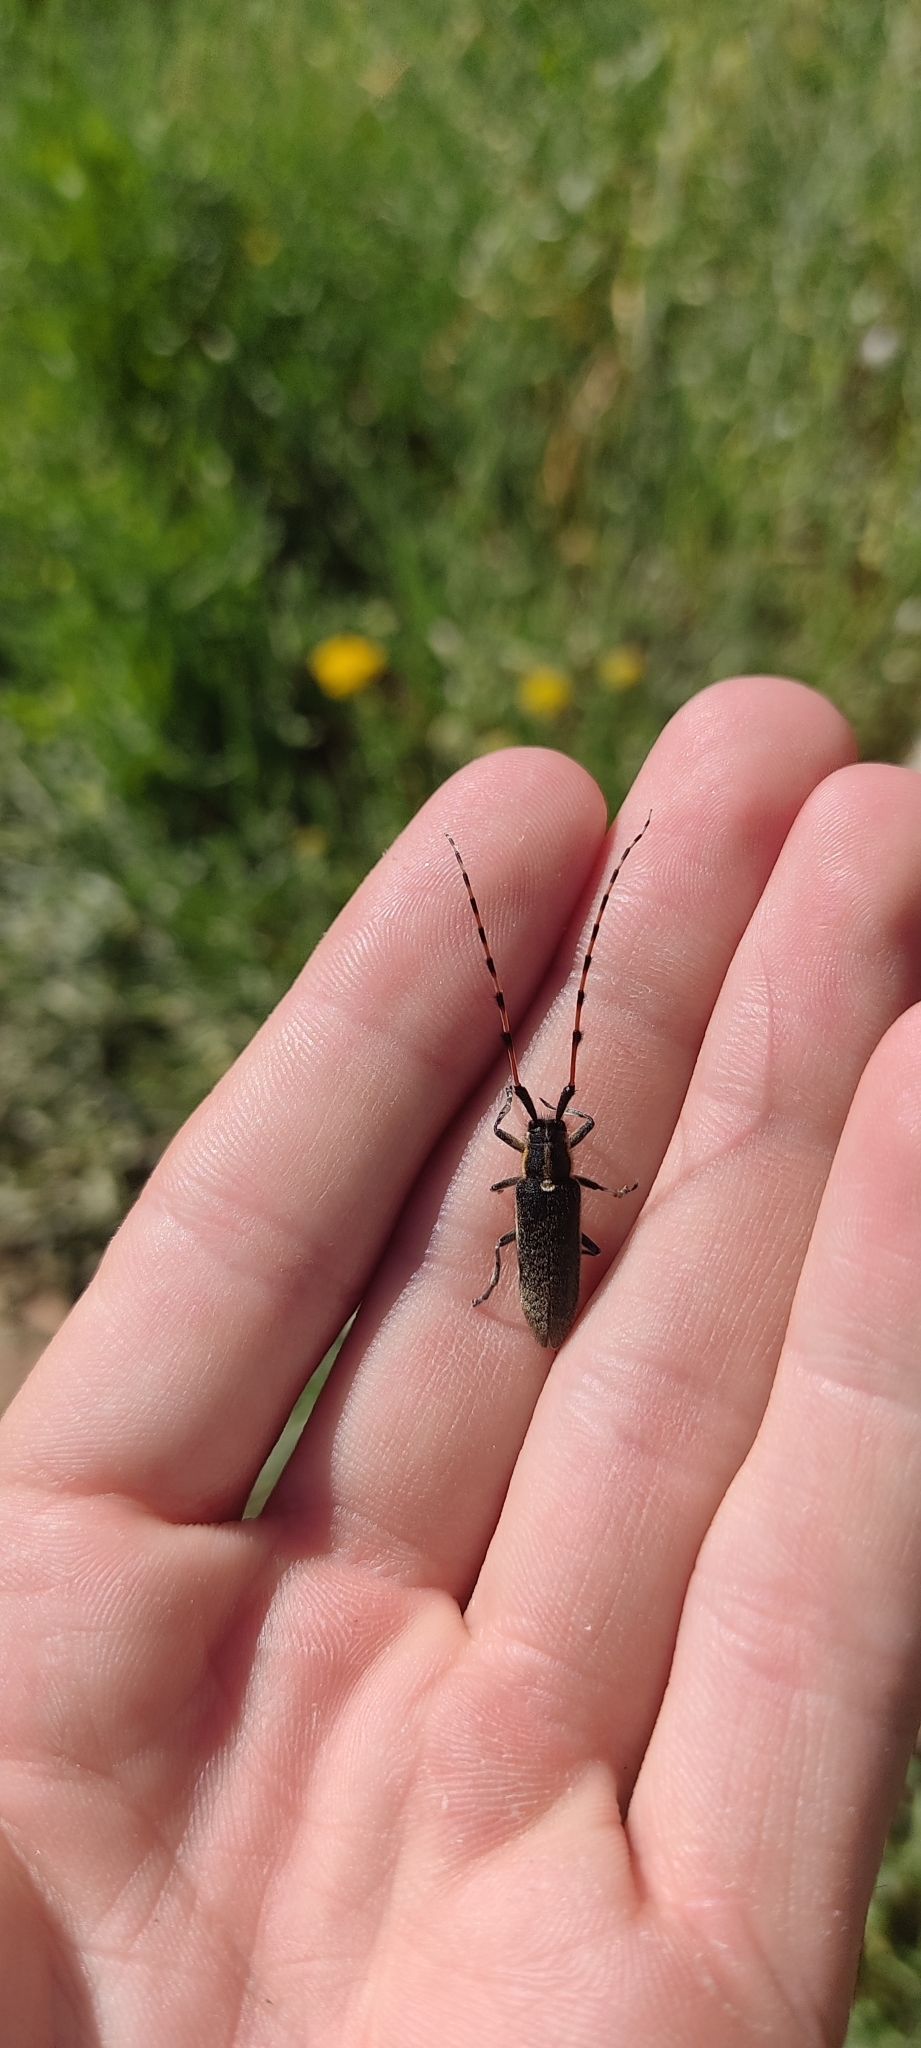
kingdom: Animalia
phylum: Arthropoda
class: Insecta
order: Coleoptera
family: Cerambycidae
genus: Agapanthia
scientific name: Agapanthia dahlii
